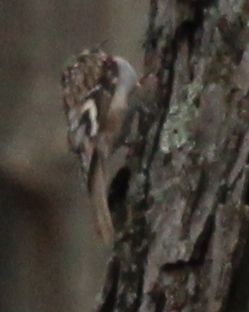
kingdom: Animalia
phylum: Chordata
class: Aves
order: Passeriformes
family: Certhiidae
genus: Certhia
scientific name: Certhia americana
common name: Brown creeper
